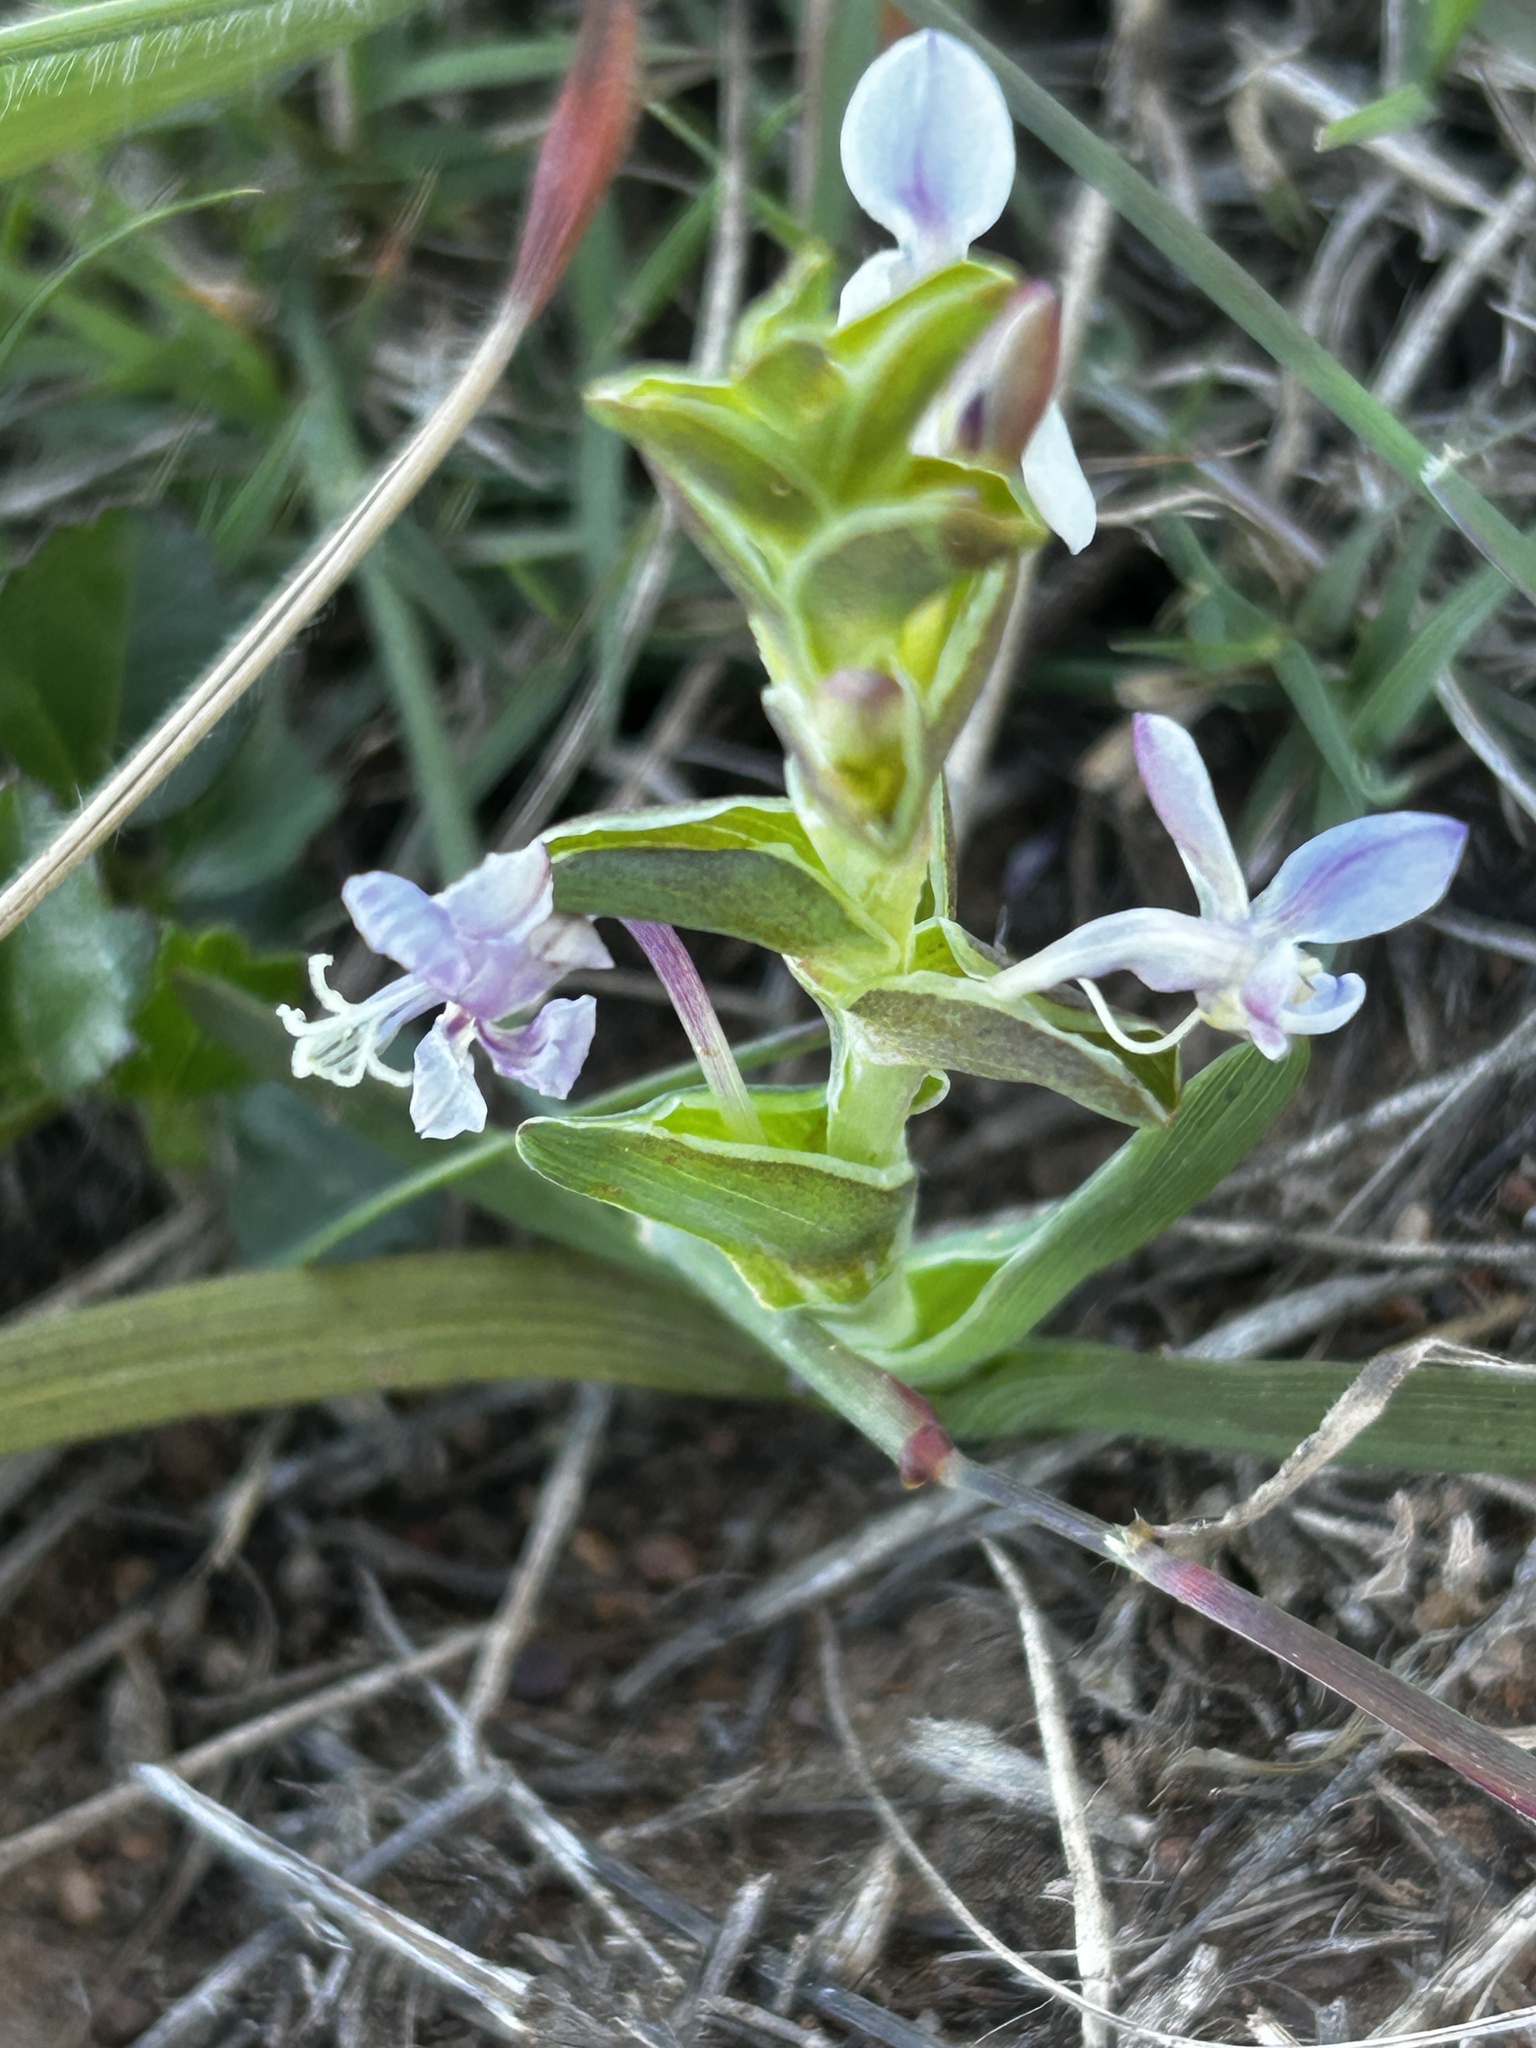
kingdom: Plantae
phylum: Tracheophyta
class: Liliopsida
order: Asparagales
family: Iridaceae
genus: Lapeirousia
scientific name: Lapeirousia pyramidalis
